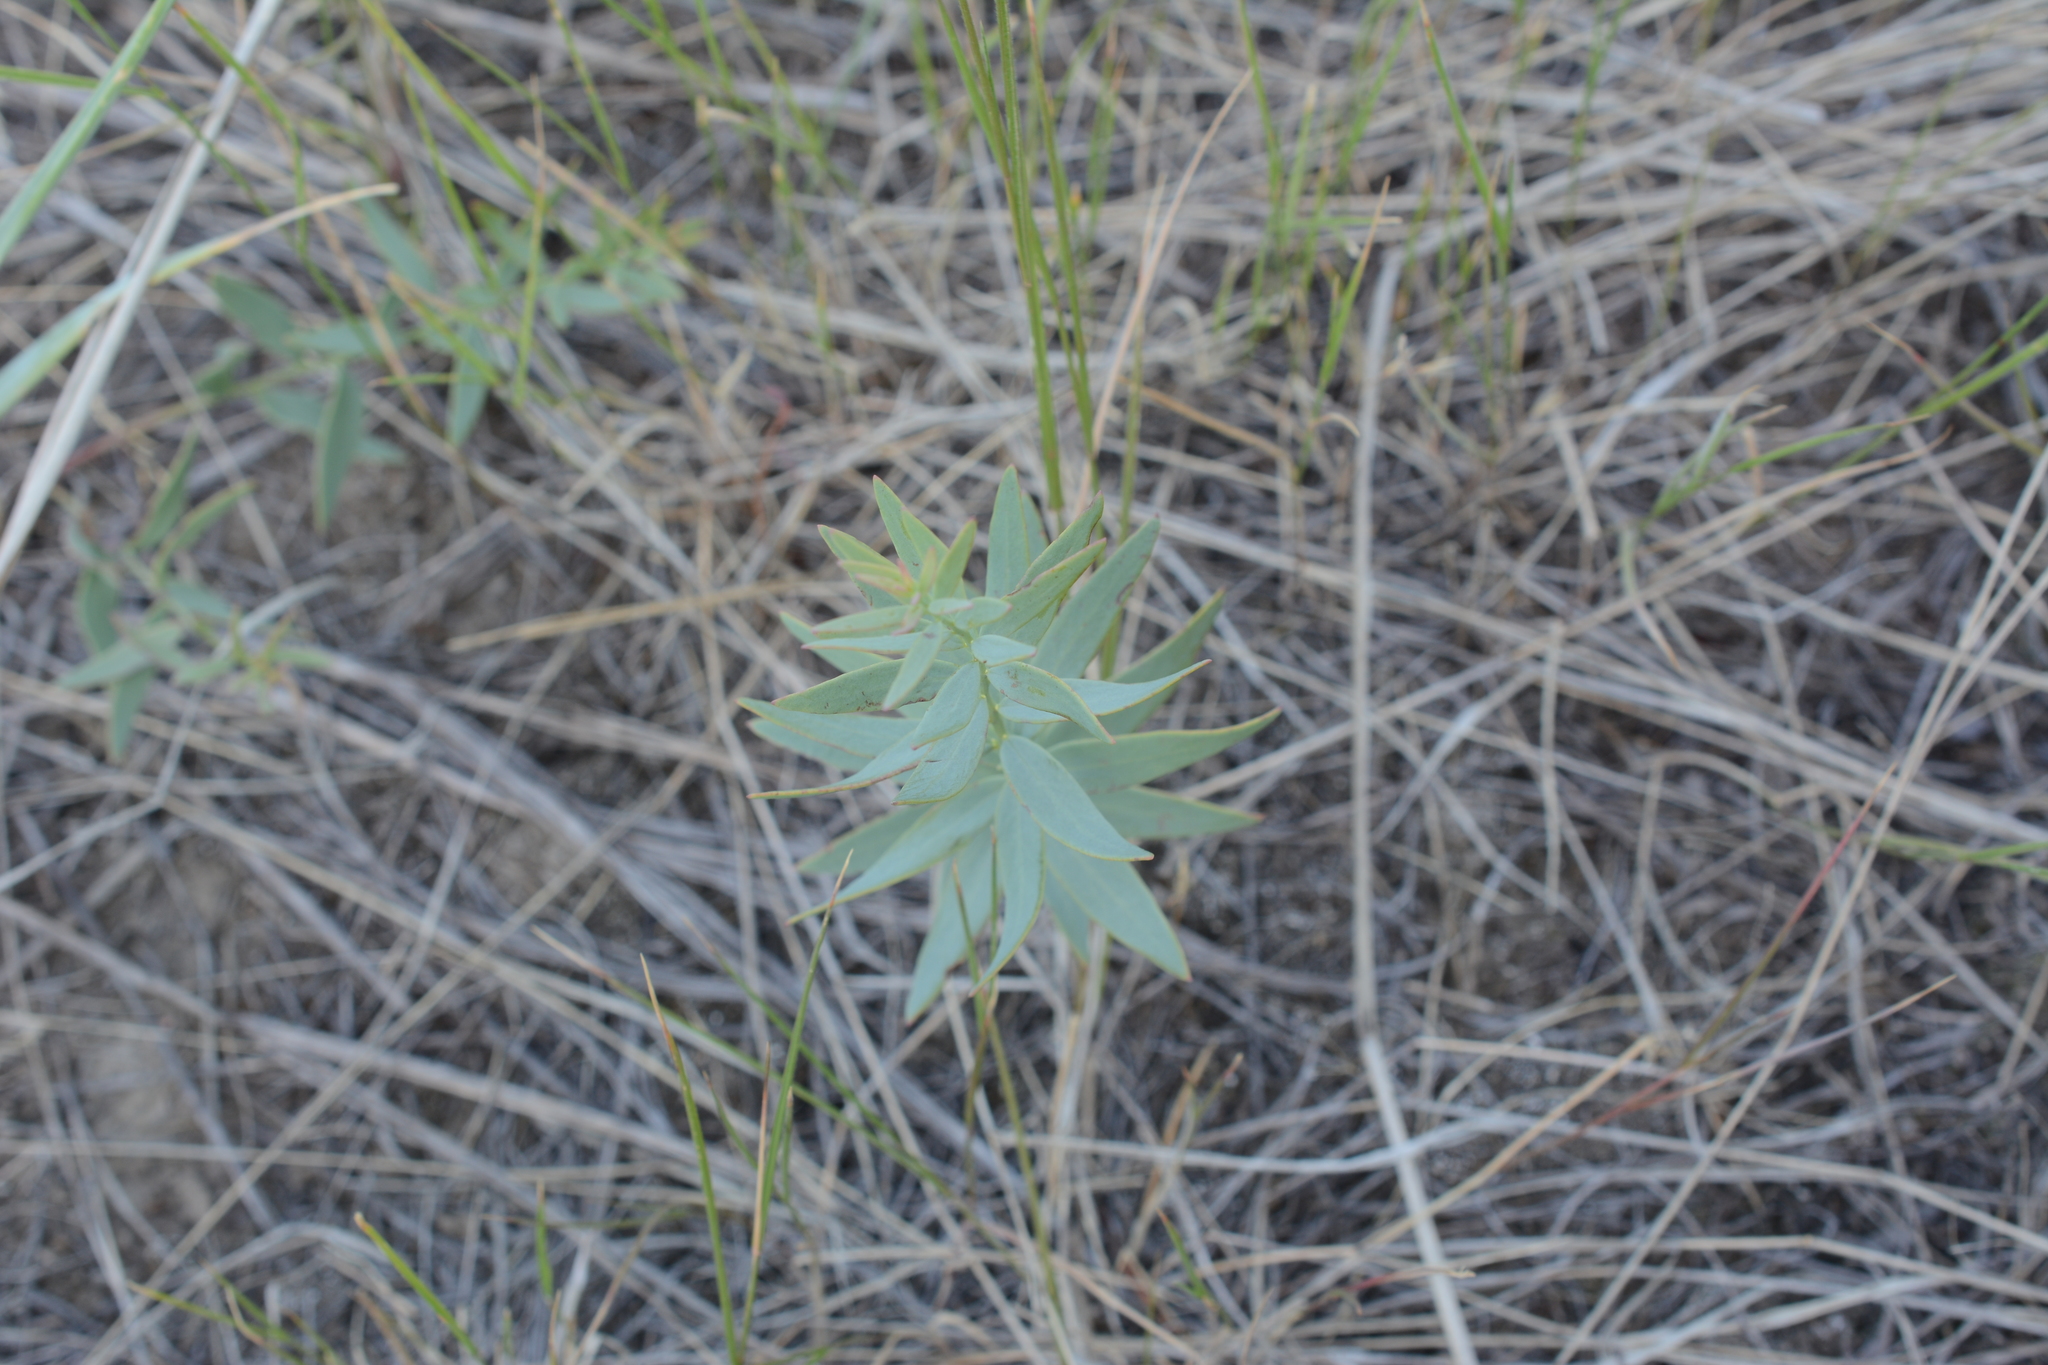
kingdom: Plantae
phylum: Tracheophyta
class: Magnoliopsida
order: Santalales
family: Comandraceae
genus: Comandra
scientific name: Comandra umbellata
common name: Bastard toadflax
